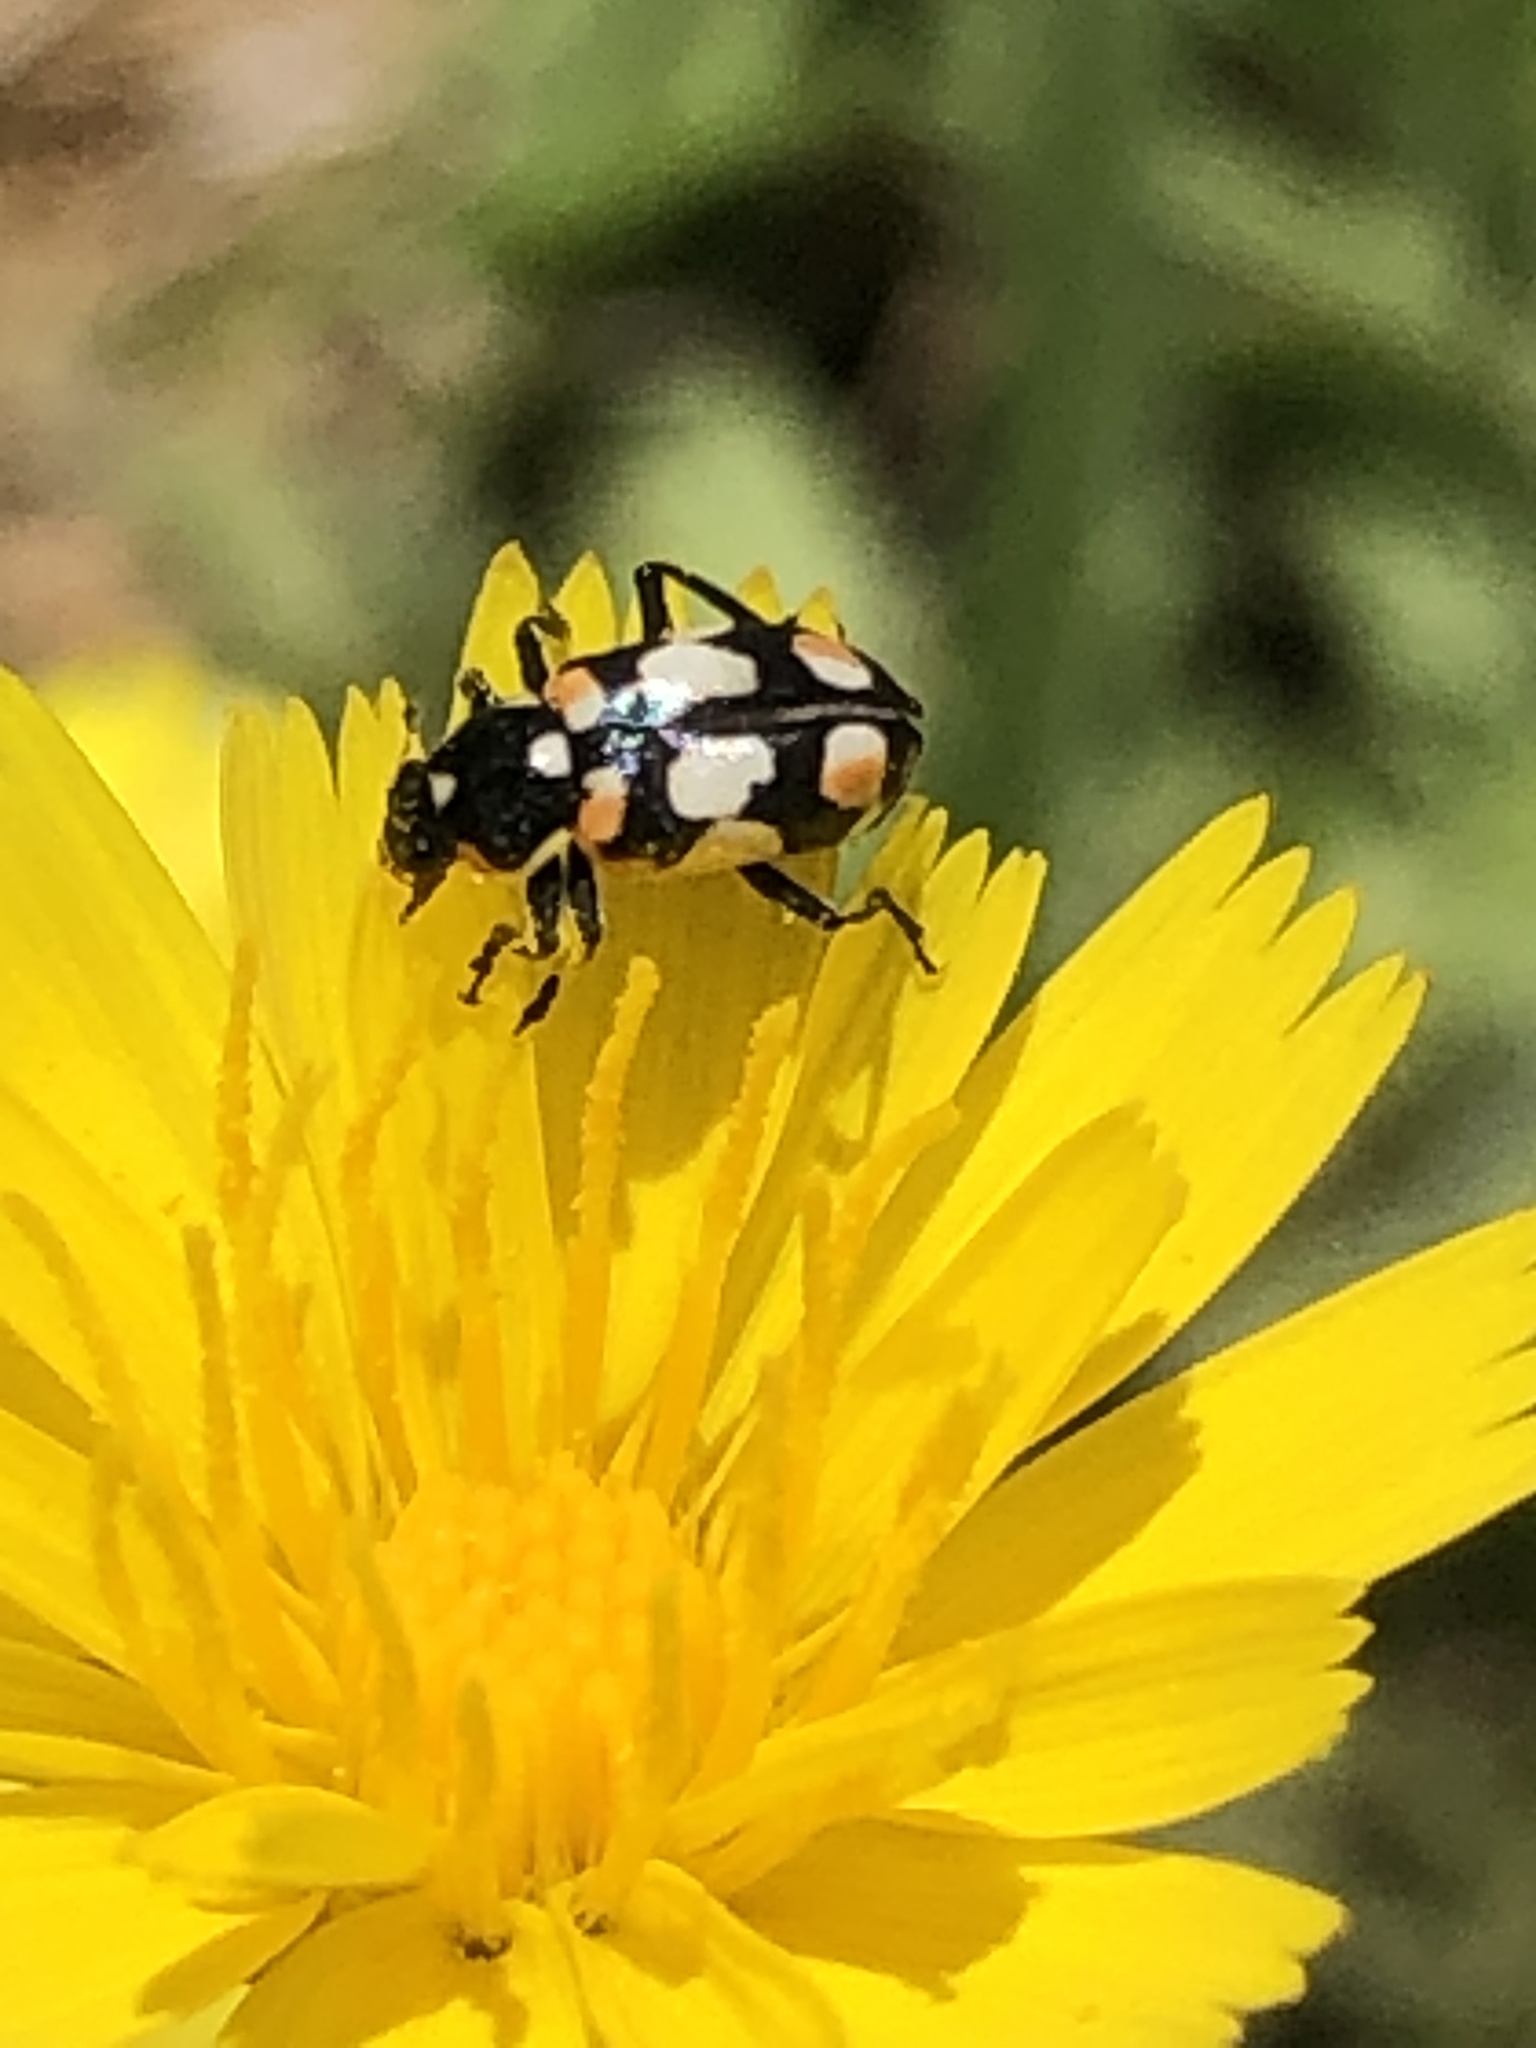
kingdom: Animalia
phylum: Arthropoda
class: Insecta
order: Coleoptera
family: Coccinellidae
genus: Eriopis
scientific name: Eriopis chilensis
